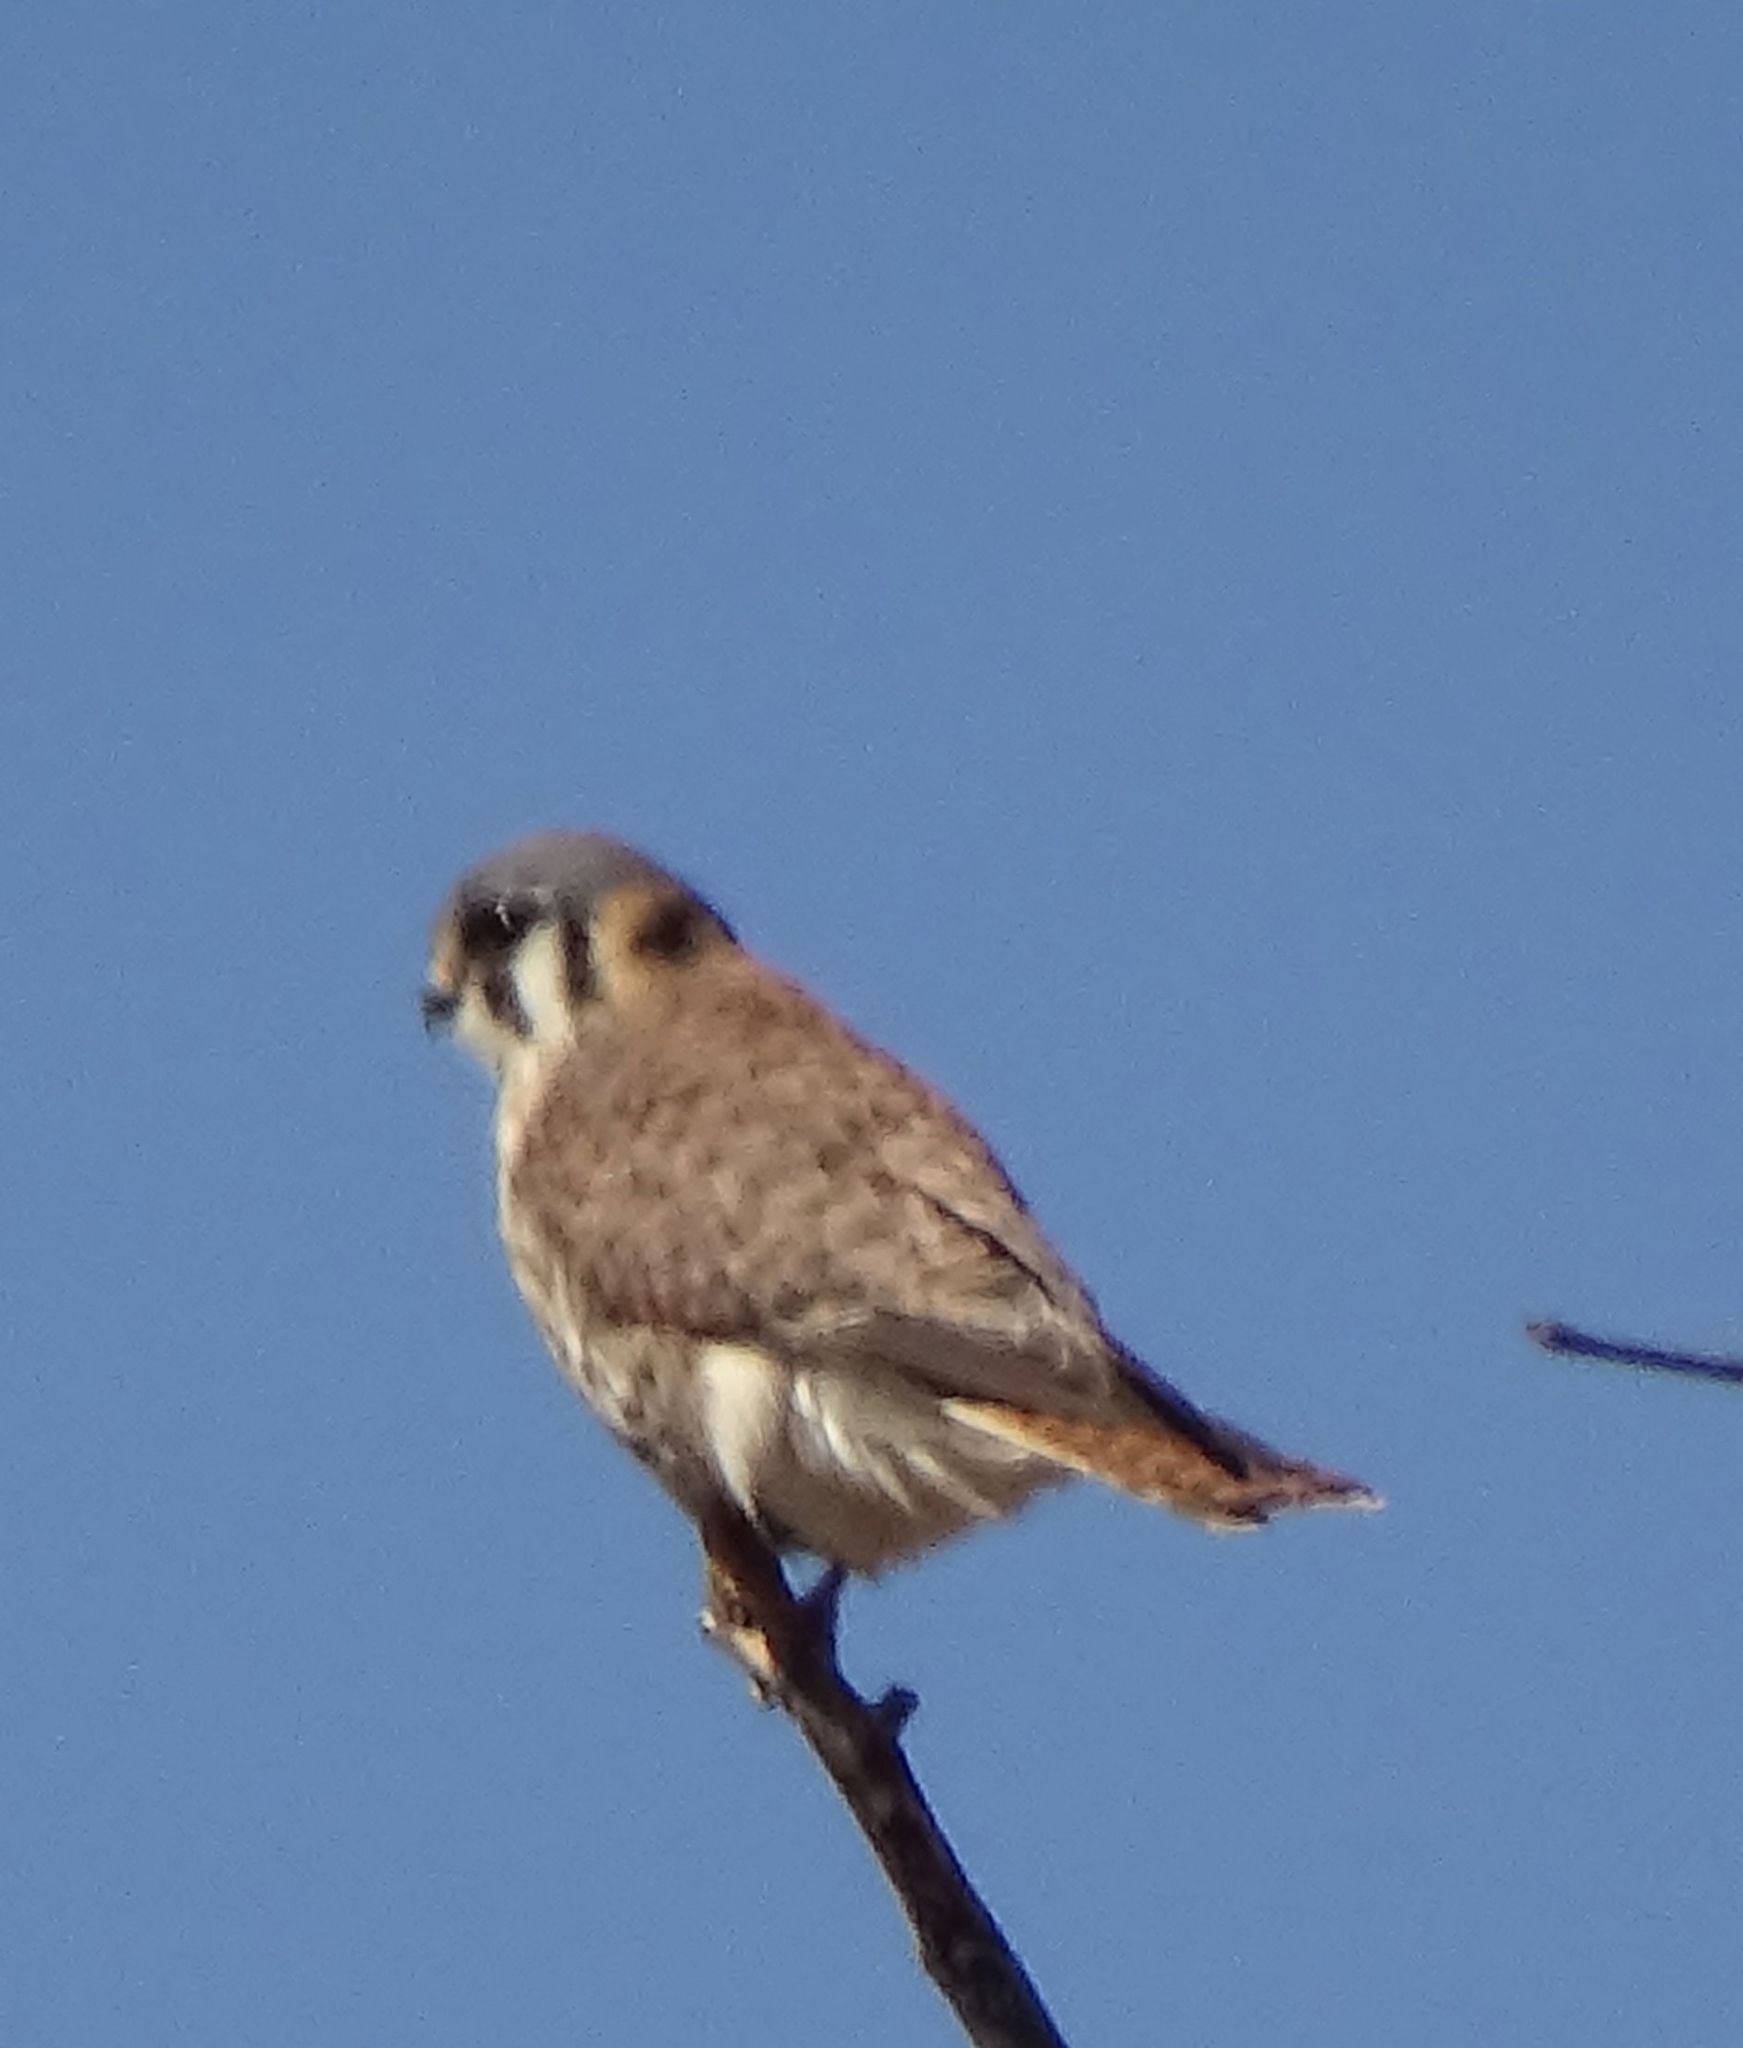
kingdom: Animalia
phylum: Chordata
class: Aves
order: Falconiformes
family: Falconidae
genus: Falco
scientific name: Falco sparverius
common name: American kestrel
